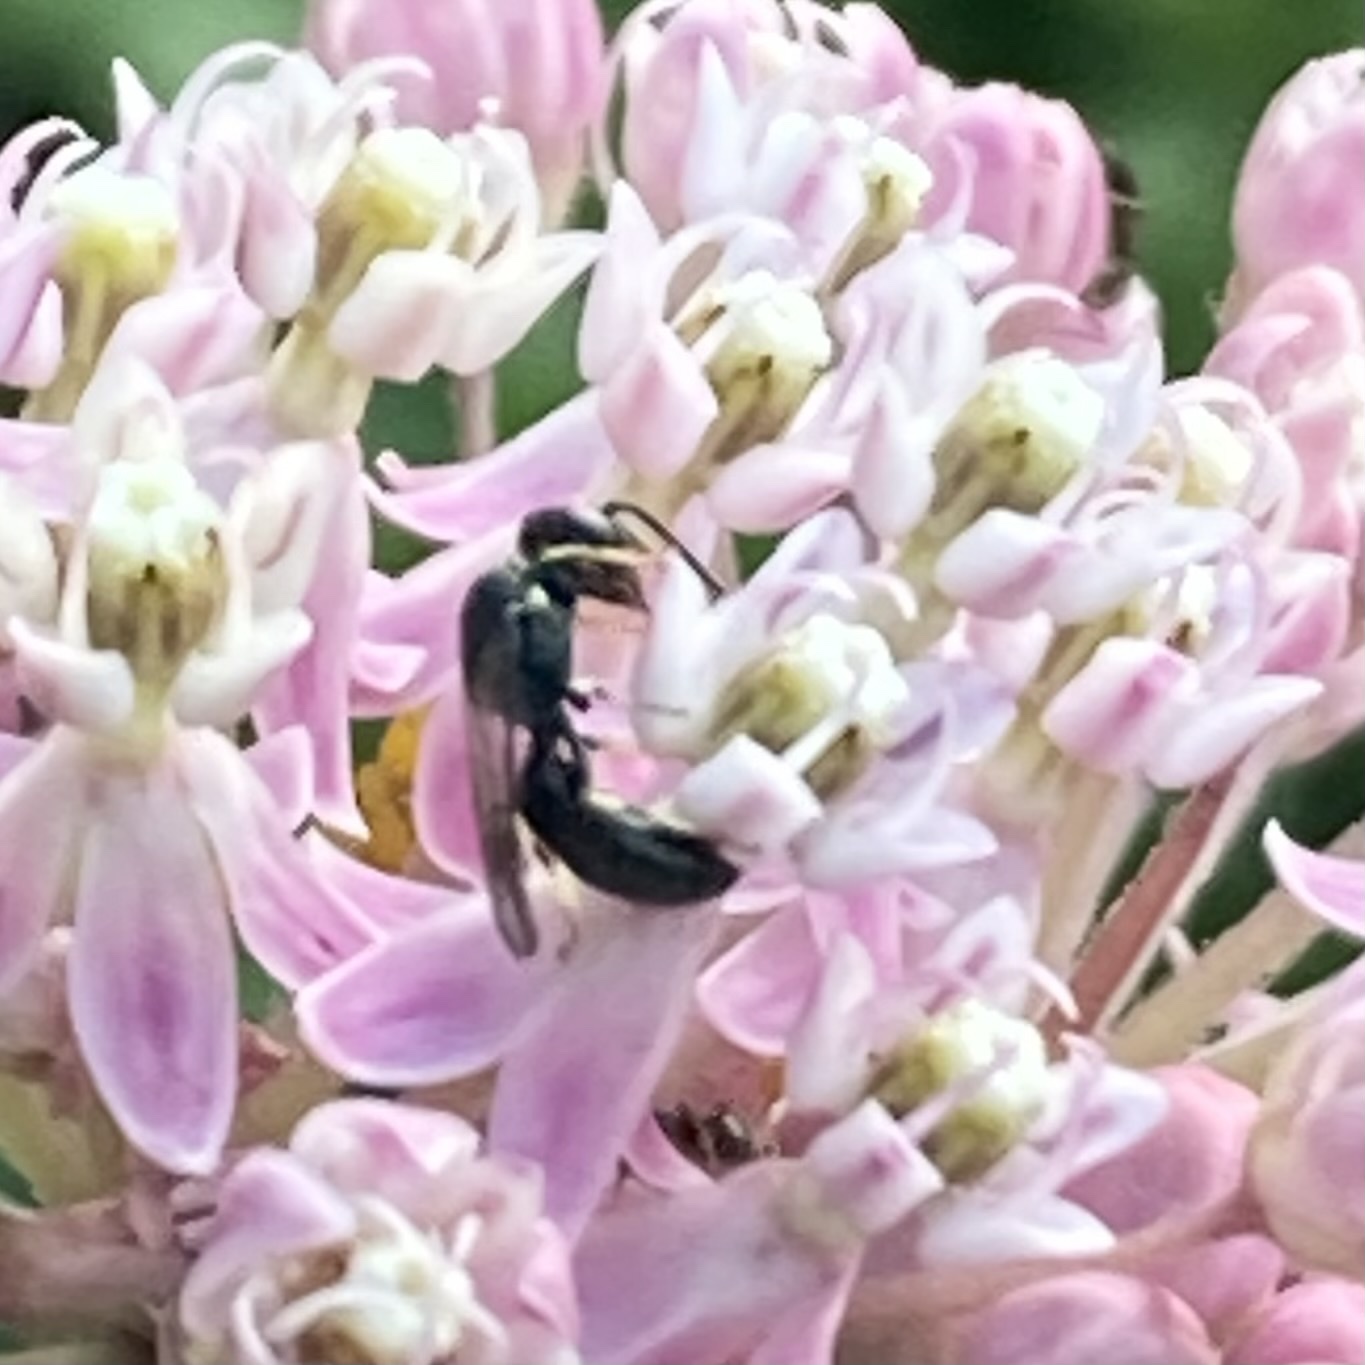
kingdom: Animalia
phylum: Arthropoda
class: Insecta
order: Hymenoptera
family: Colletidae
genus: Hylaeus
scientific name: Hylaeus modestus
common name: Yellow-faced bee
